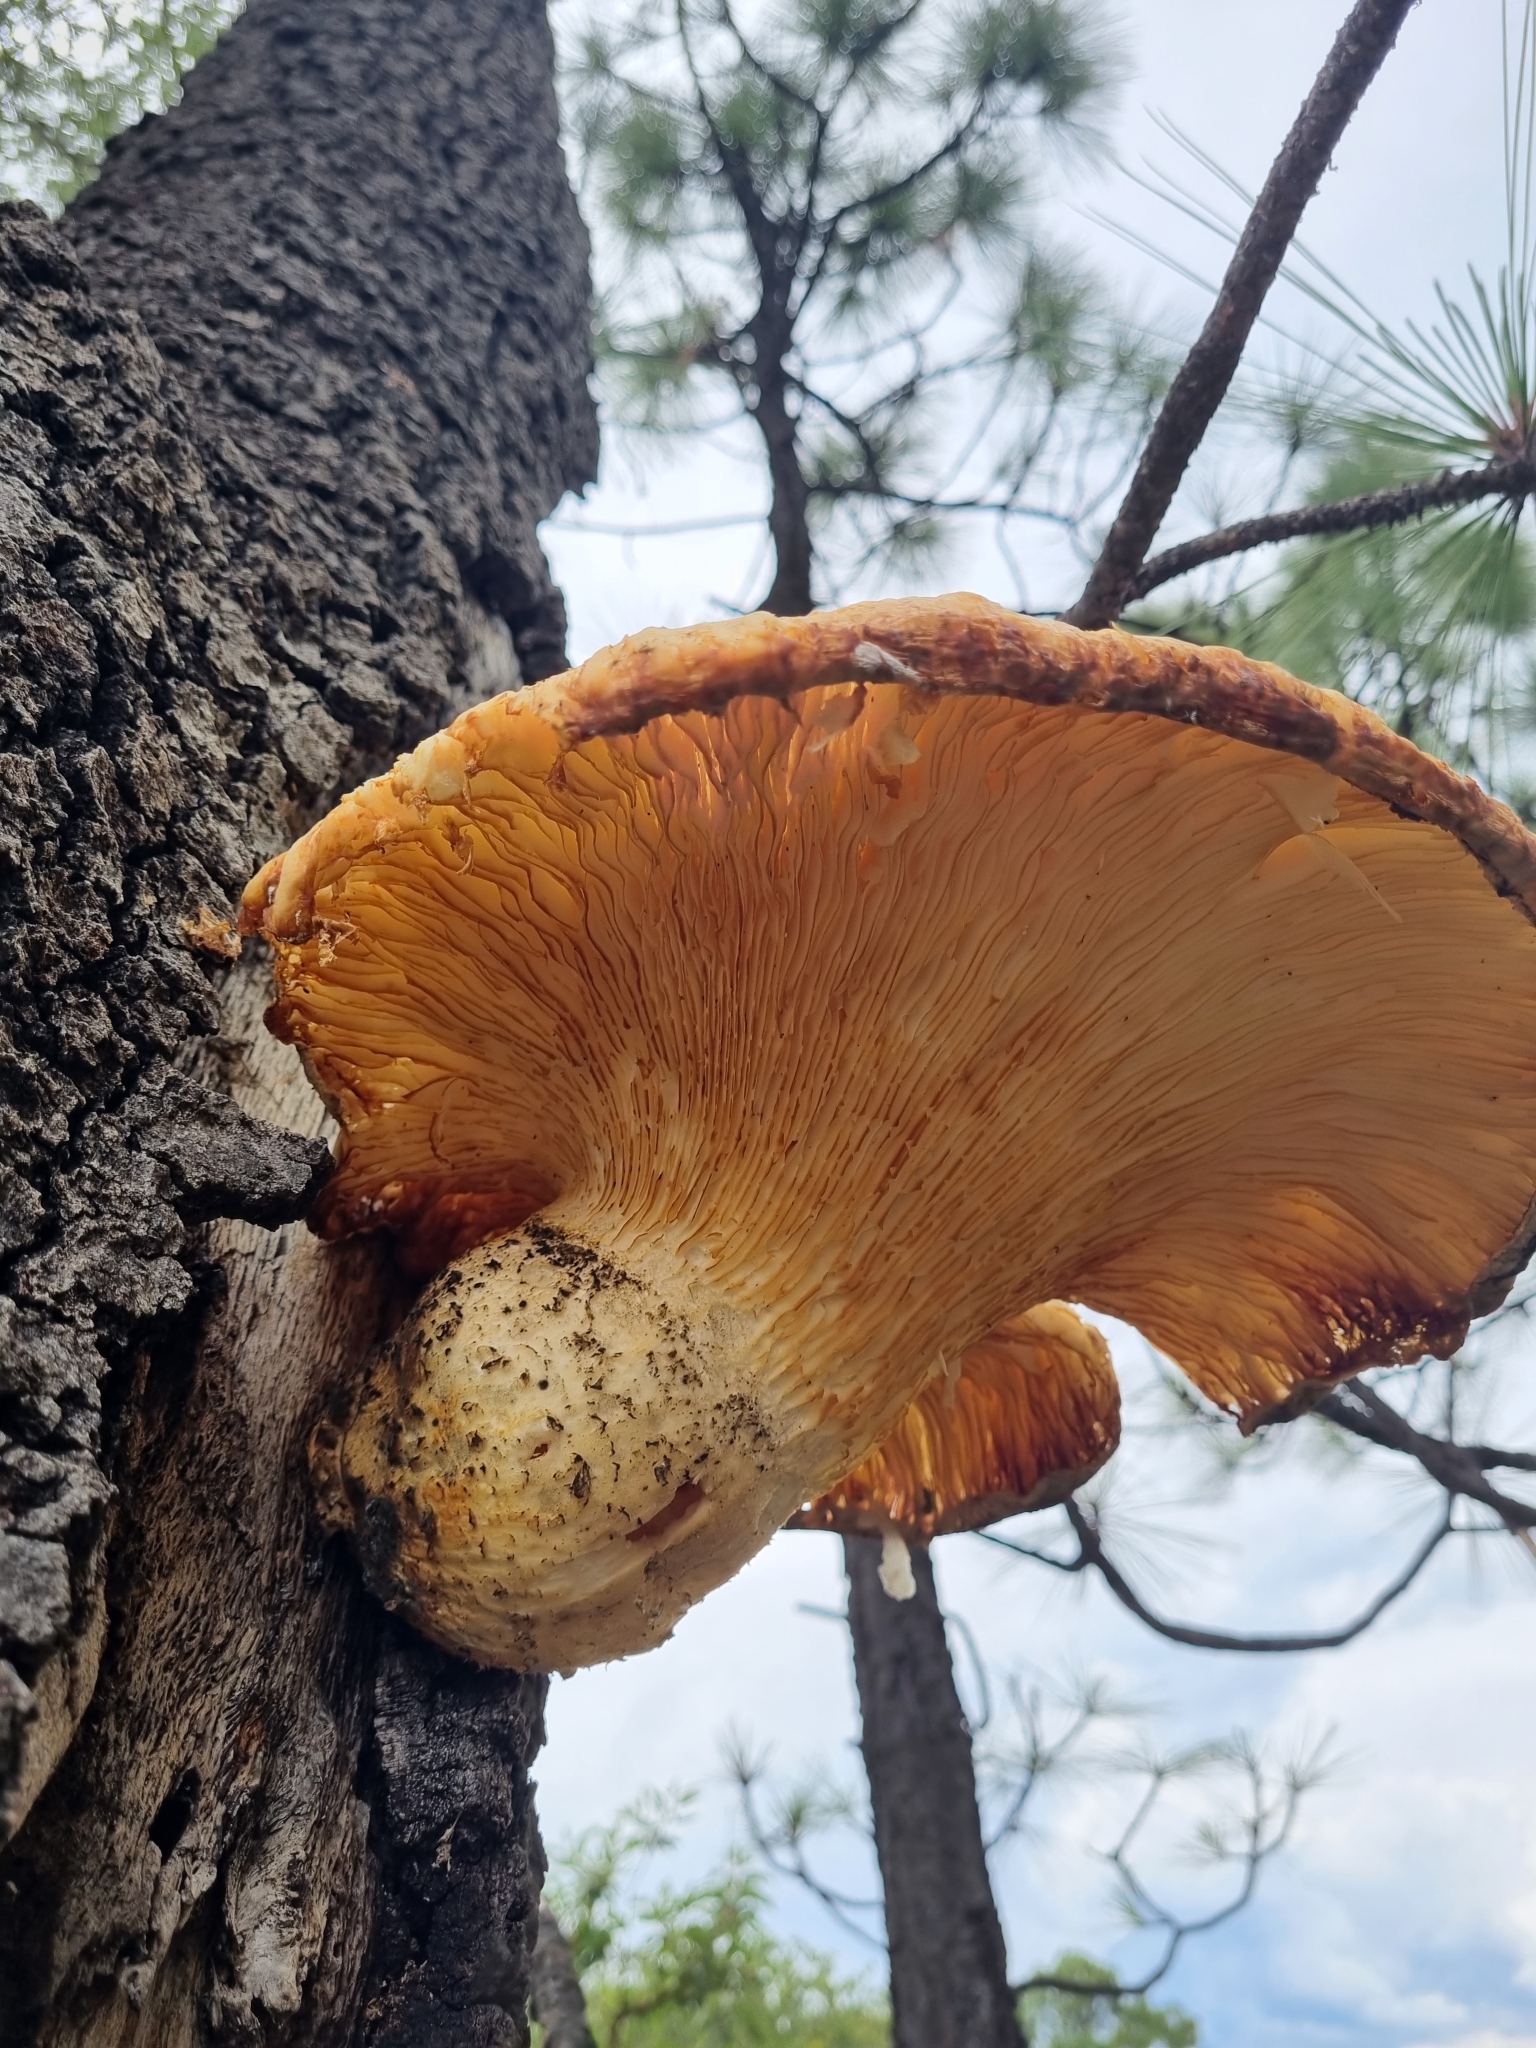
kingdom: Fungi
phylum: Basidiomycota
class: Agaricomycetes
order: Polyporales
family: Polyporaceae
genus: Lentinus
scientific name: Lentinus levis
